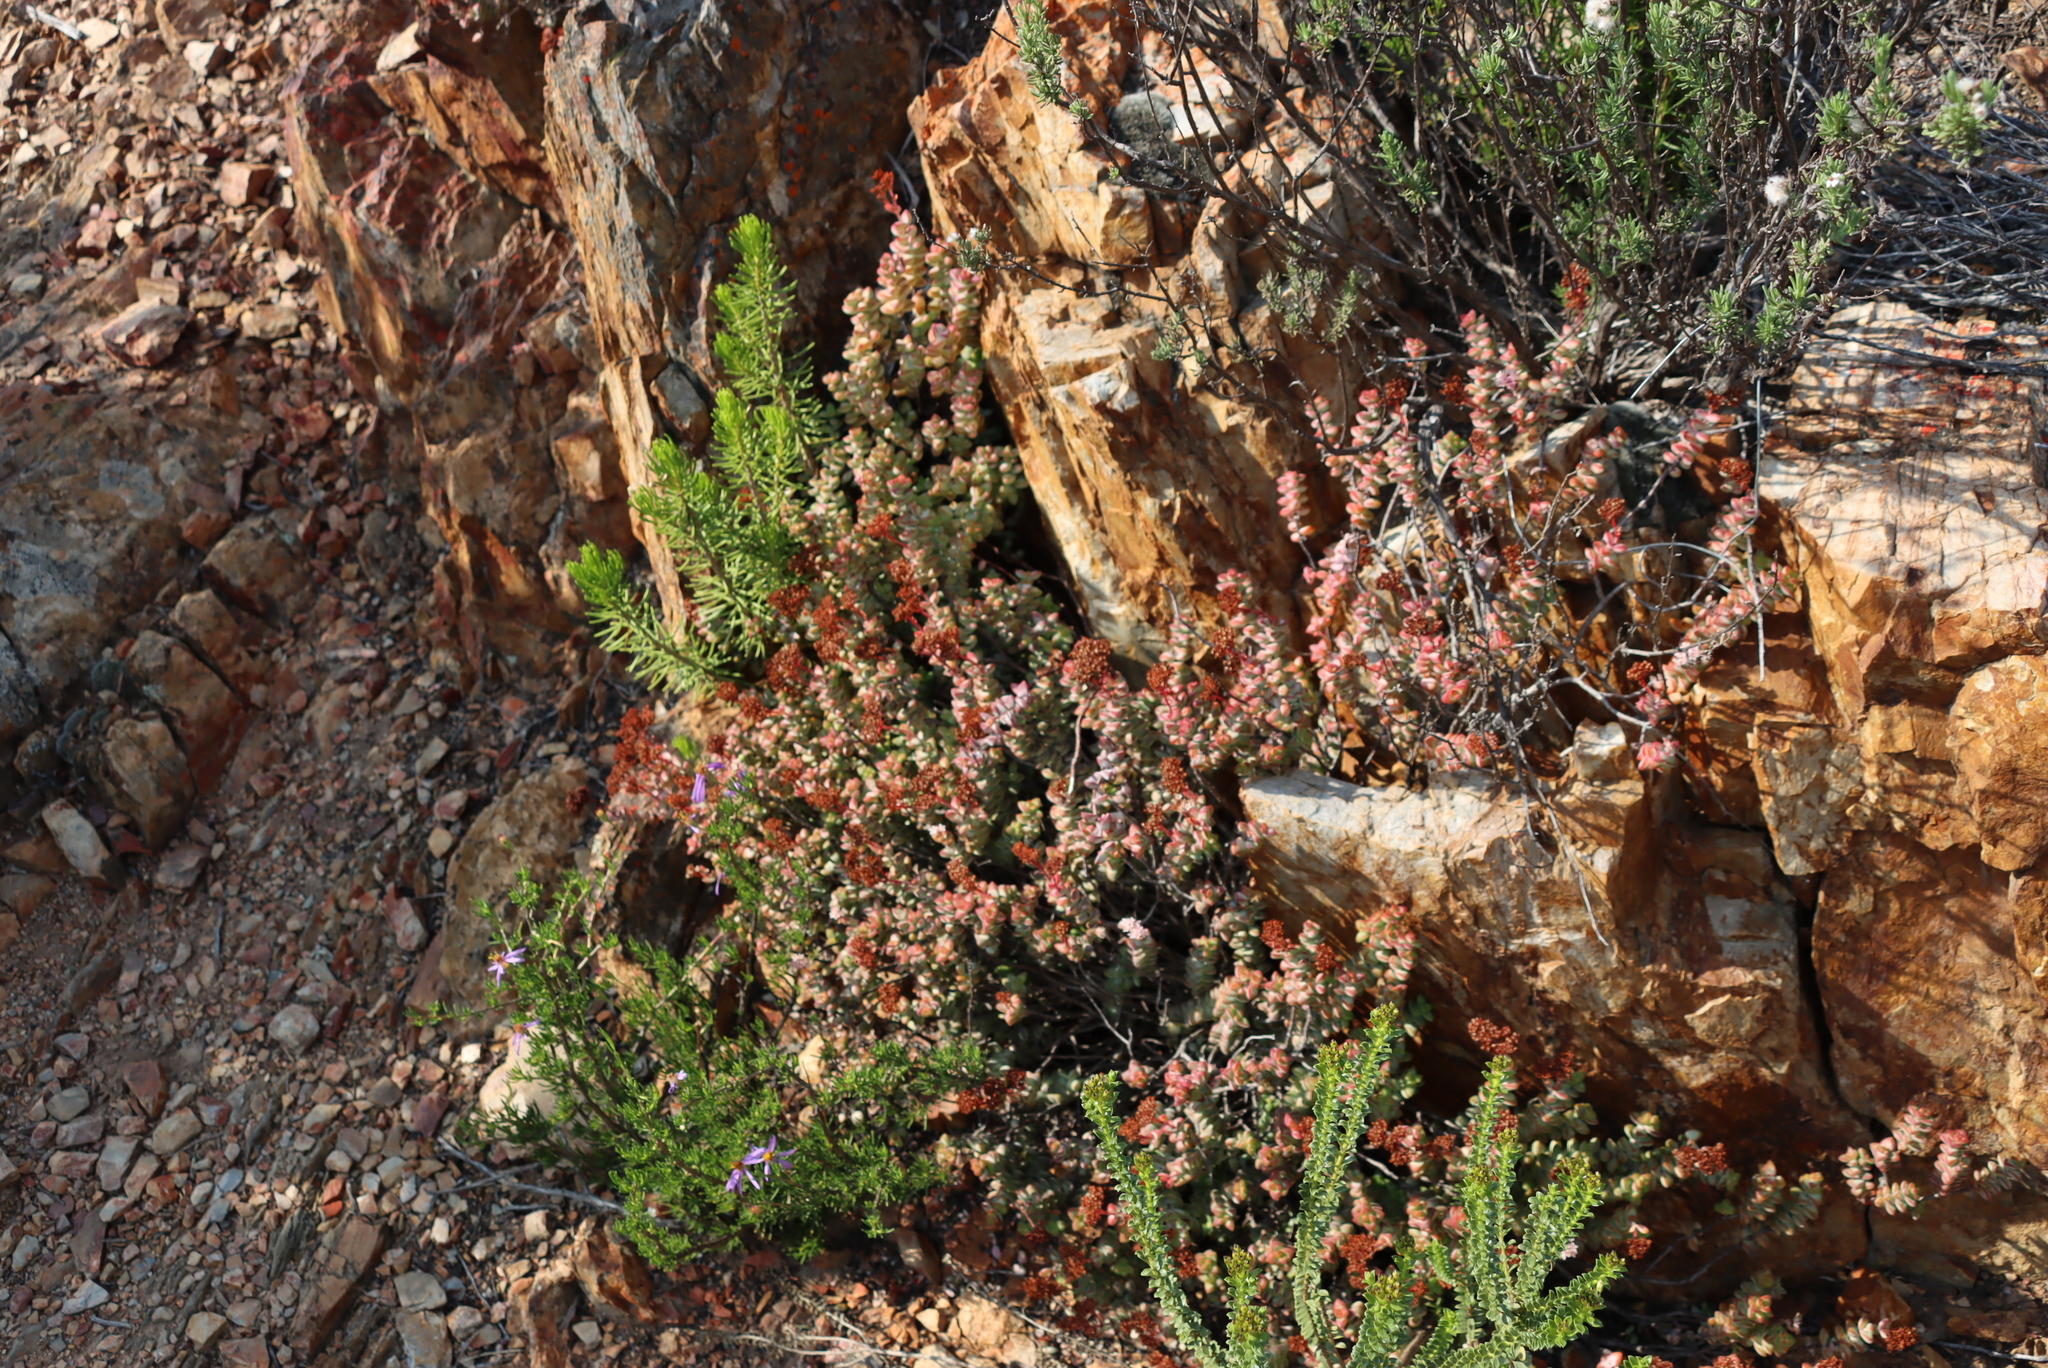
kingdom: Plantae
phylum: Tracheophyta
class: Magnoliopsida
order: Saxifragales
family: Crassulaceae
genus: Crassula
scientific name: Crassula rupestris
